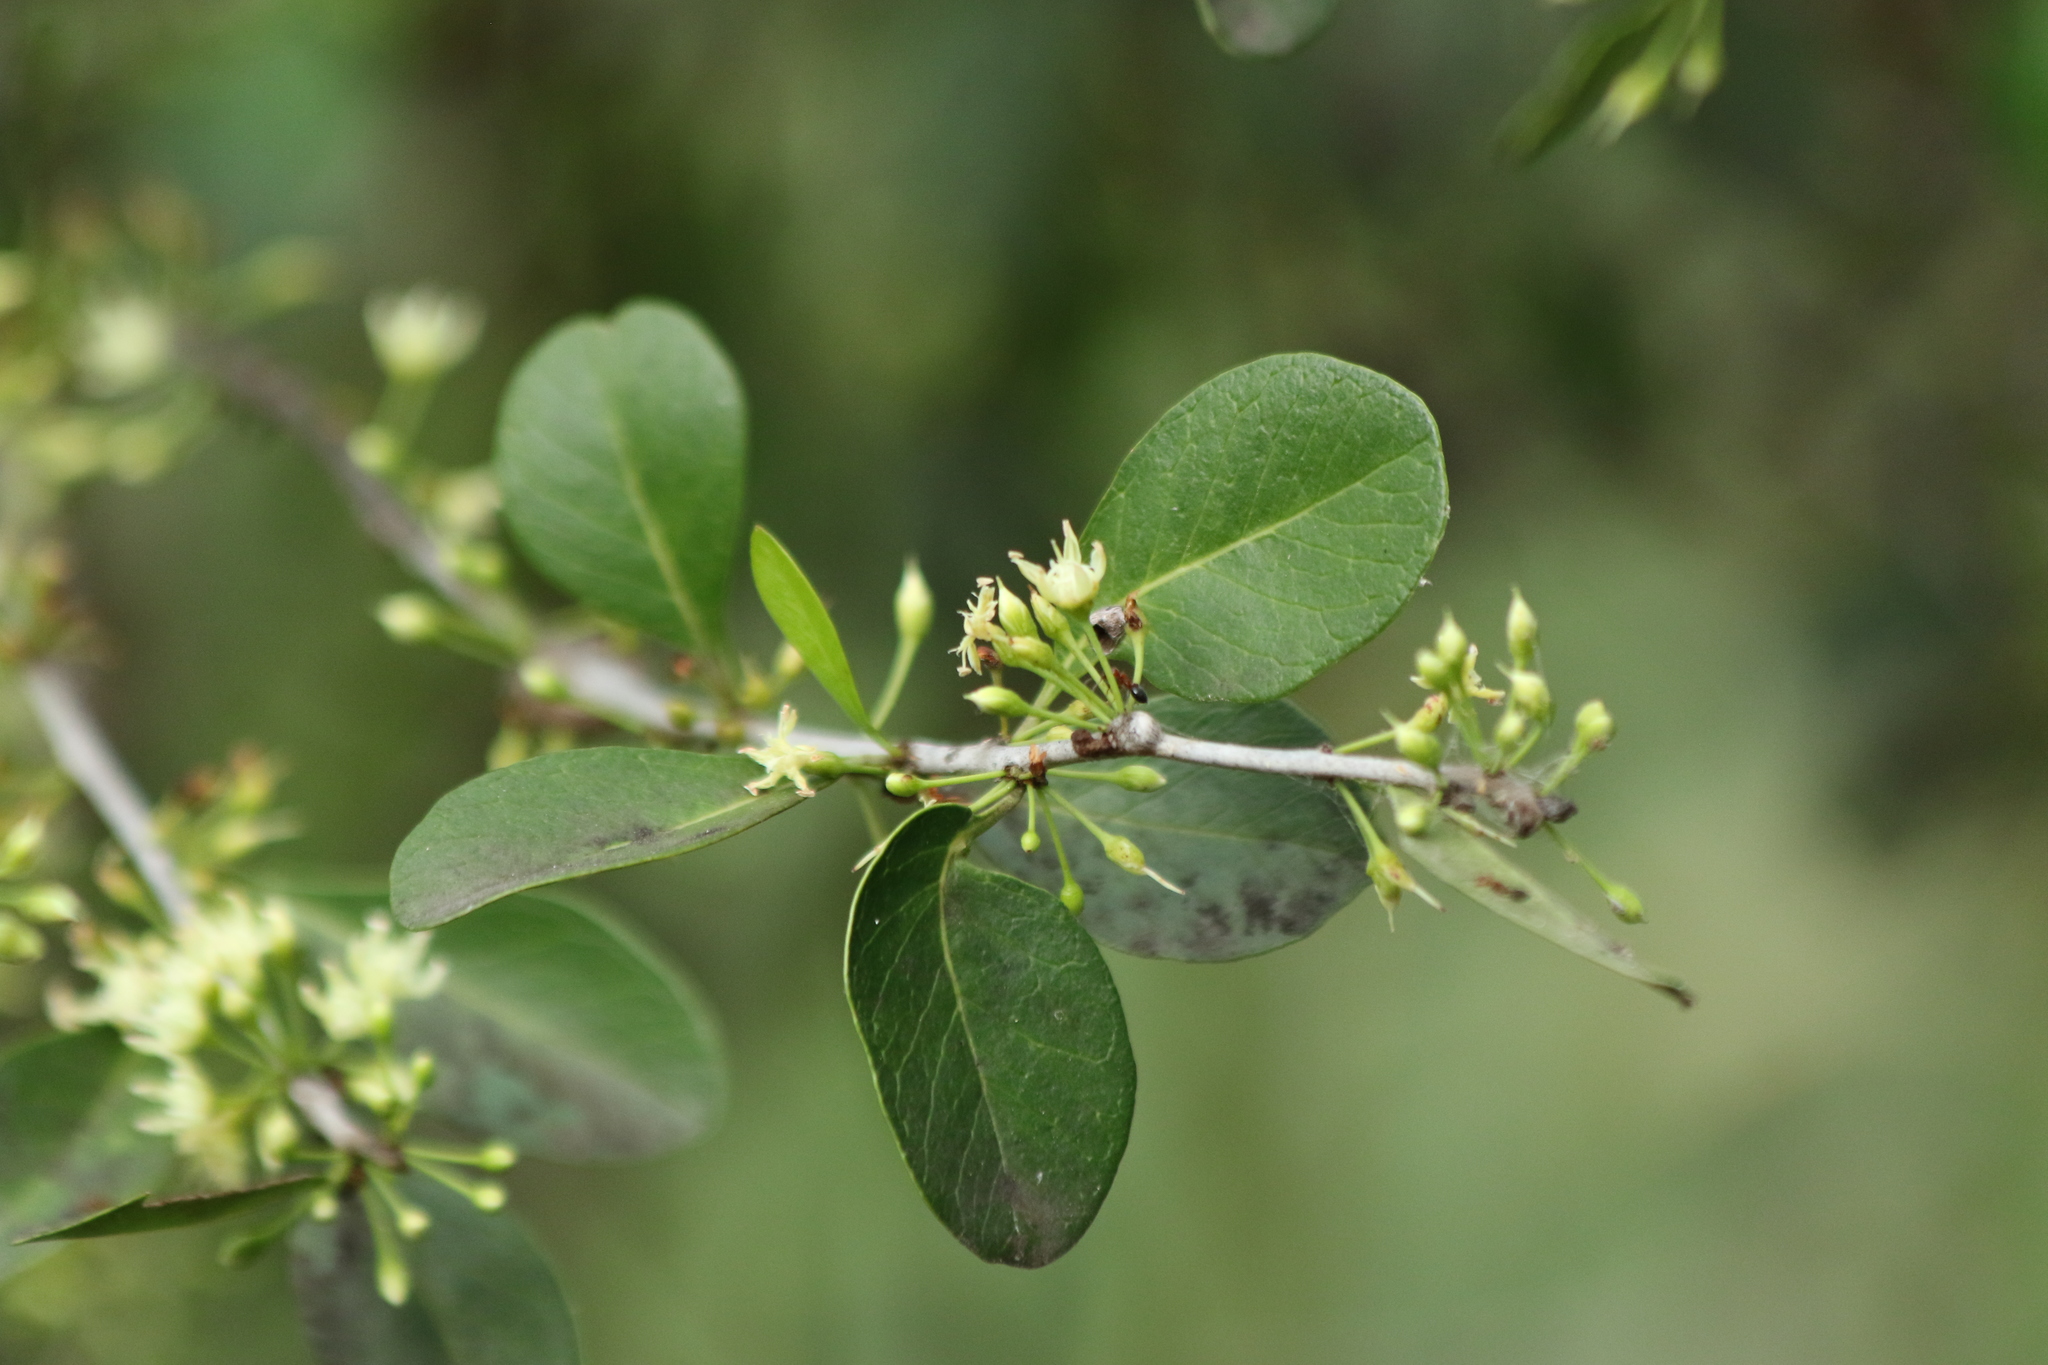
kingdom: Plantae
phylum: Tracheophyta
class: Magnoliopsida
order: Ericales
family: Sapotaceae
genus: Sideroxylon
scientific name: Sideroxylon celastrinum
